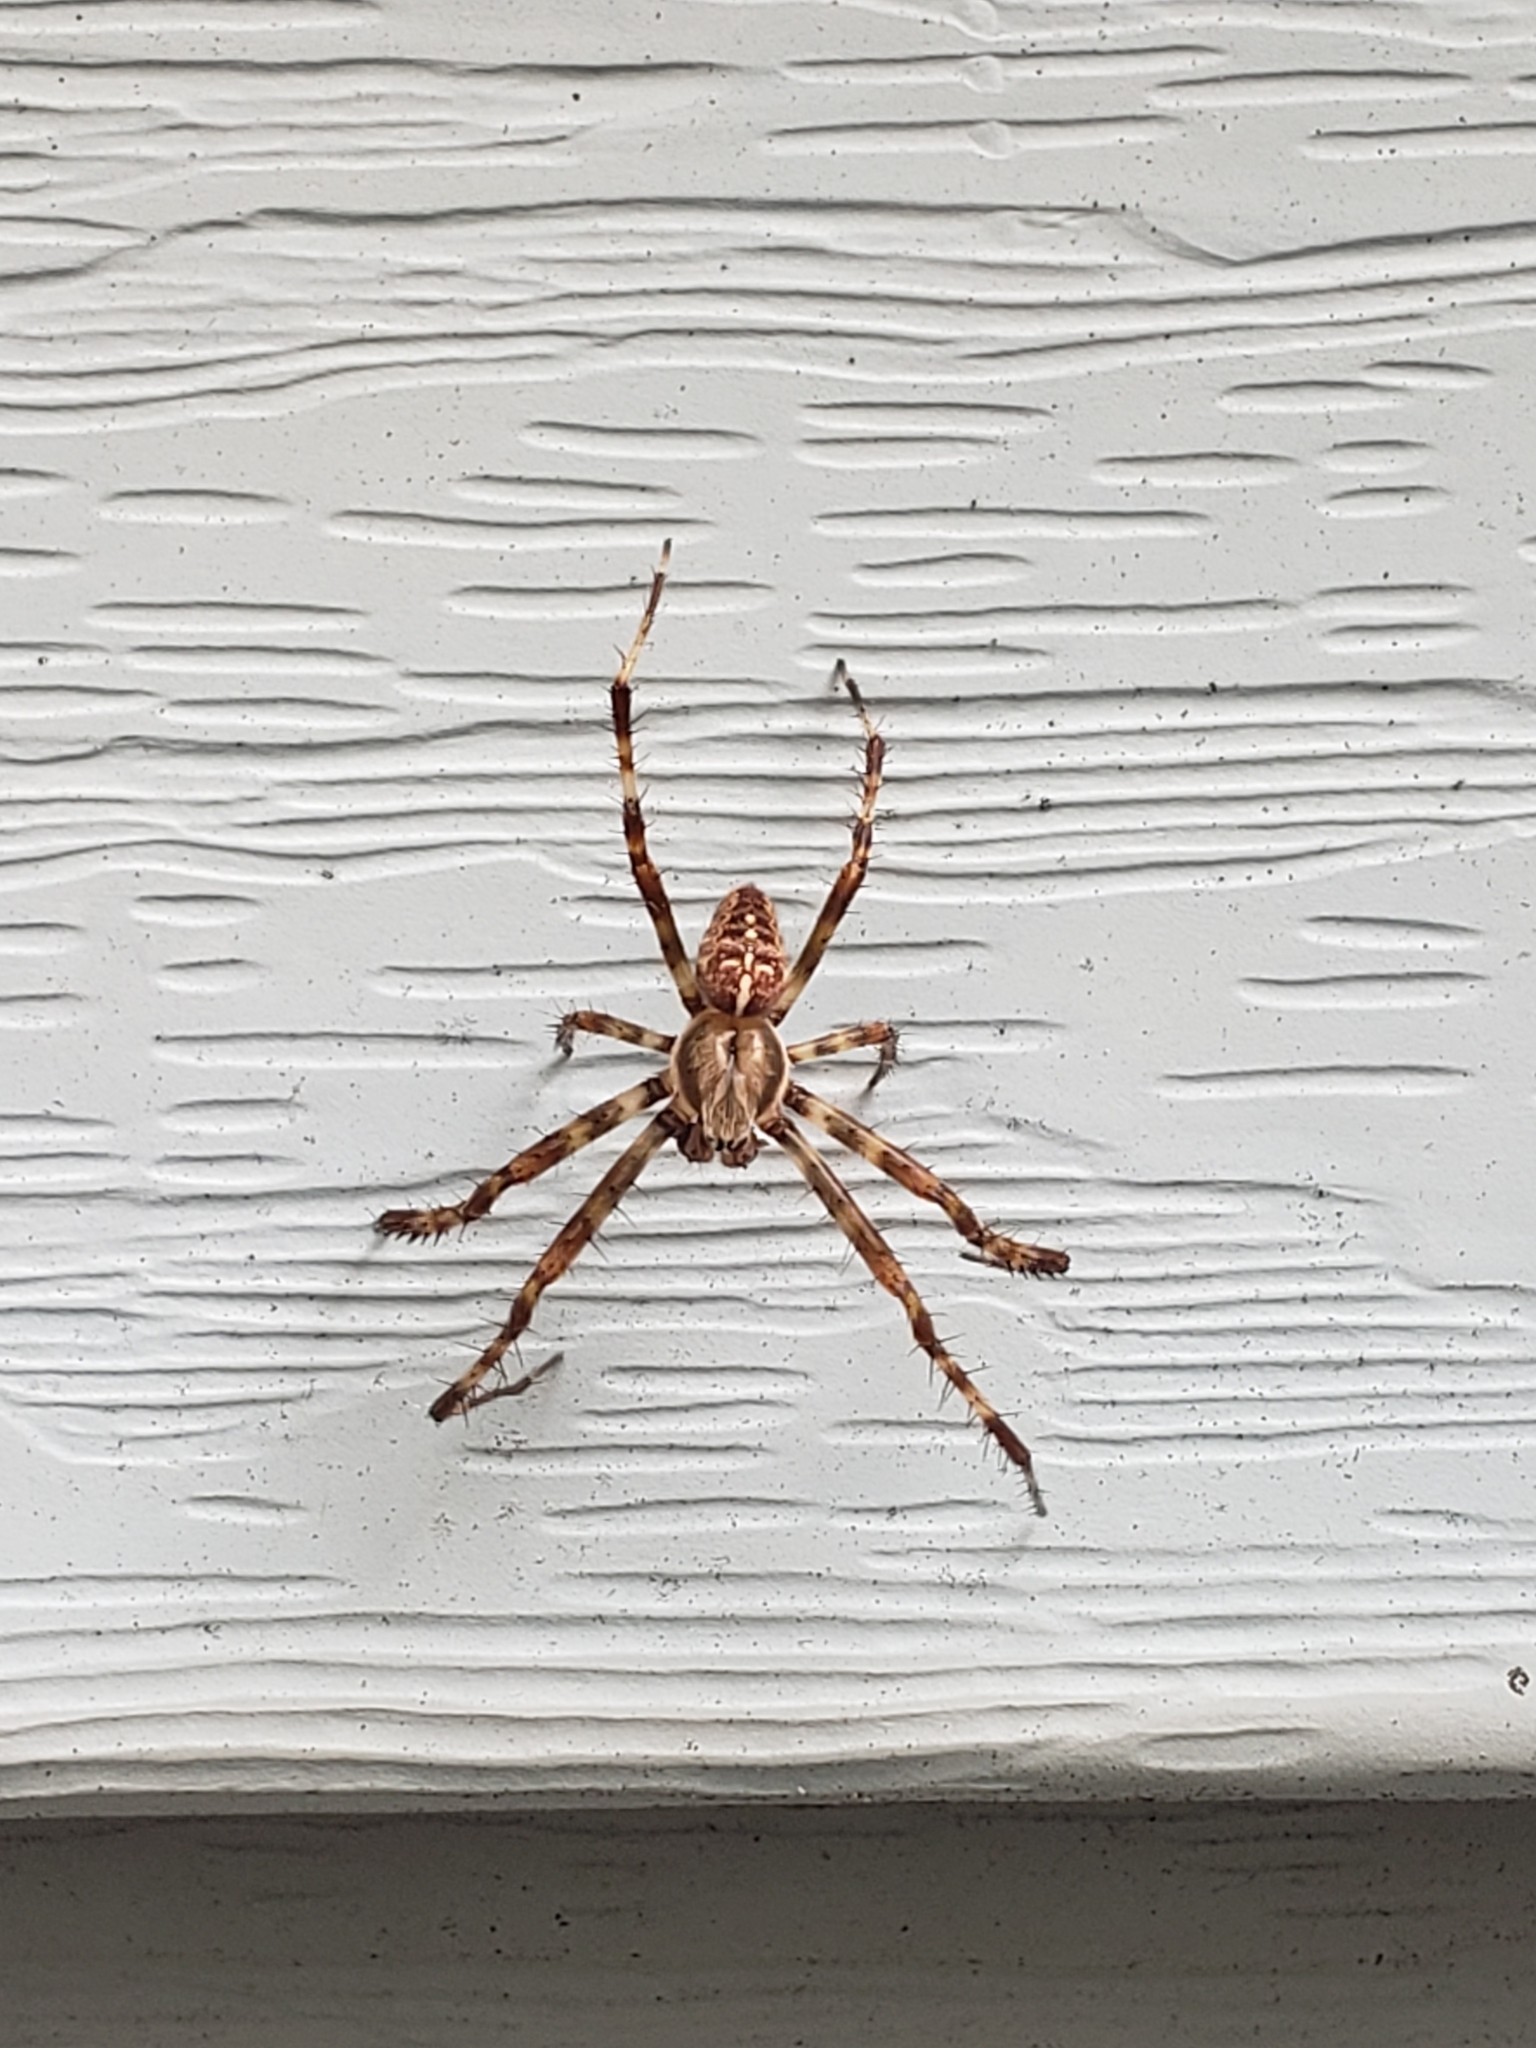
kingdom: Animalia
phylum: Arthropoda
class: Arachnida
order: Araneae
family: Araneidae
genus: Araneus
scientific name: Araneus diadematus
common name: Cross orbweaver
